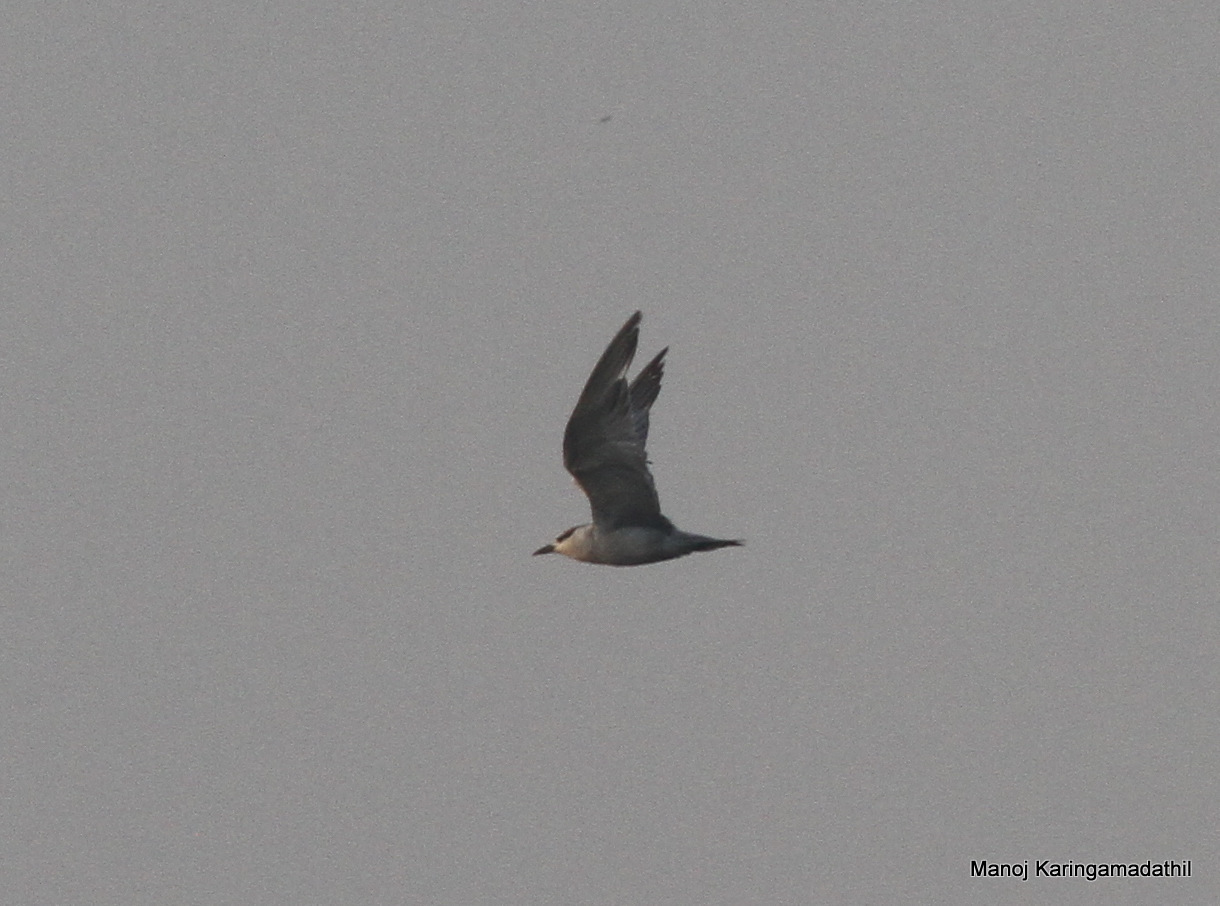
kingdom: Animalia
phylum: Chordata
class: Aves
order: Charadriiformes
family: Laridae
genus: Chlidonias
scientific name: Chlidonias hybrida
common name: Whiskered tern
